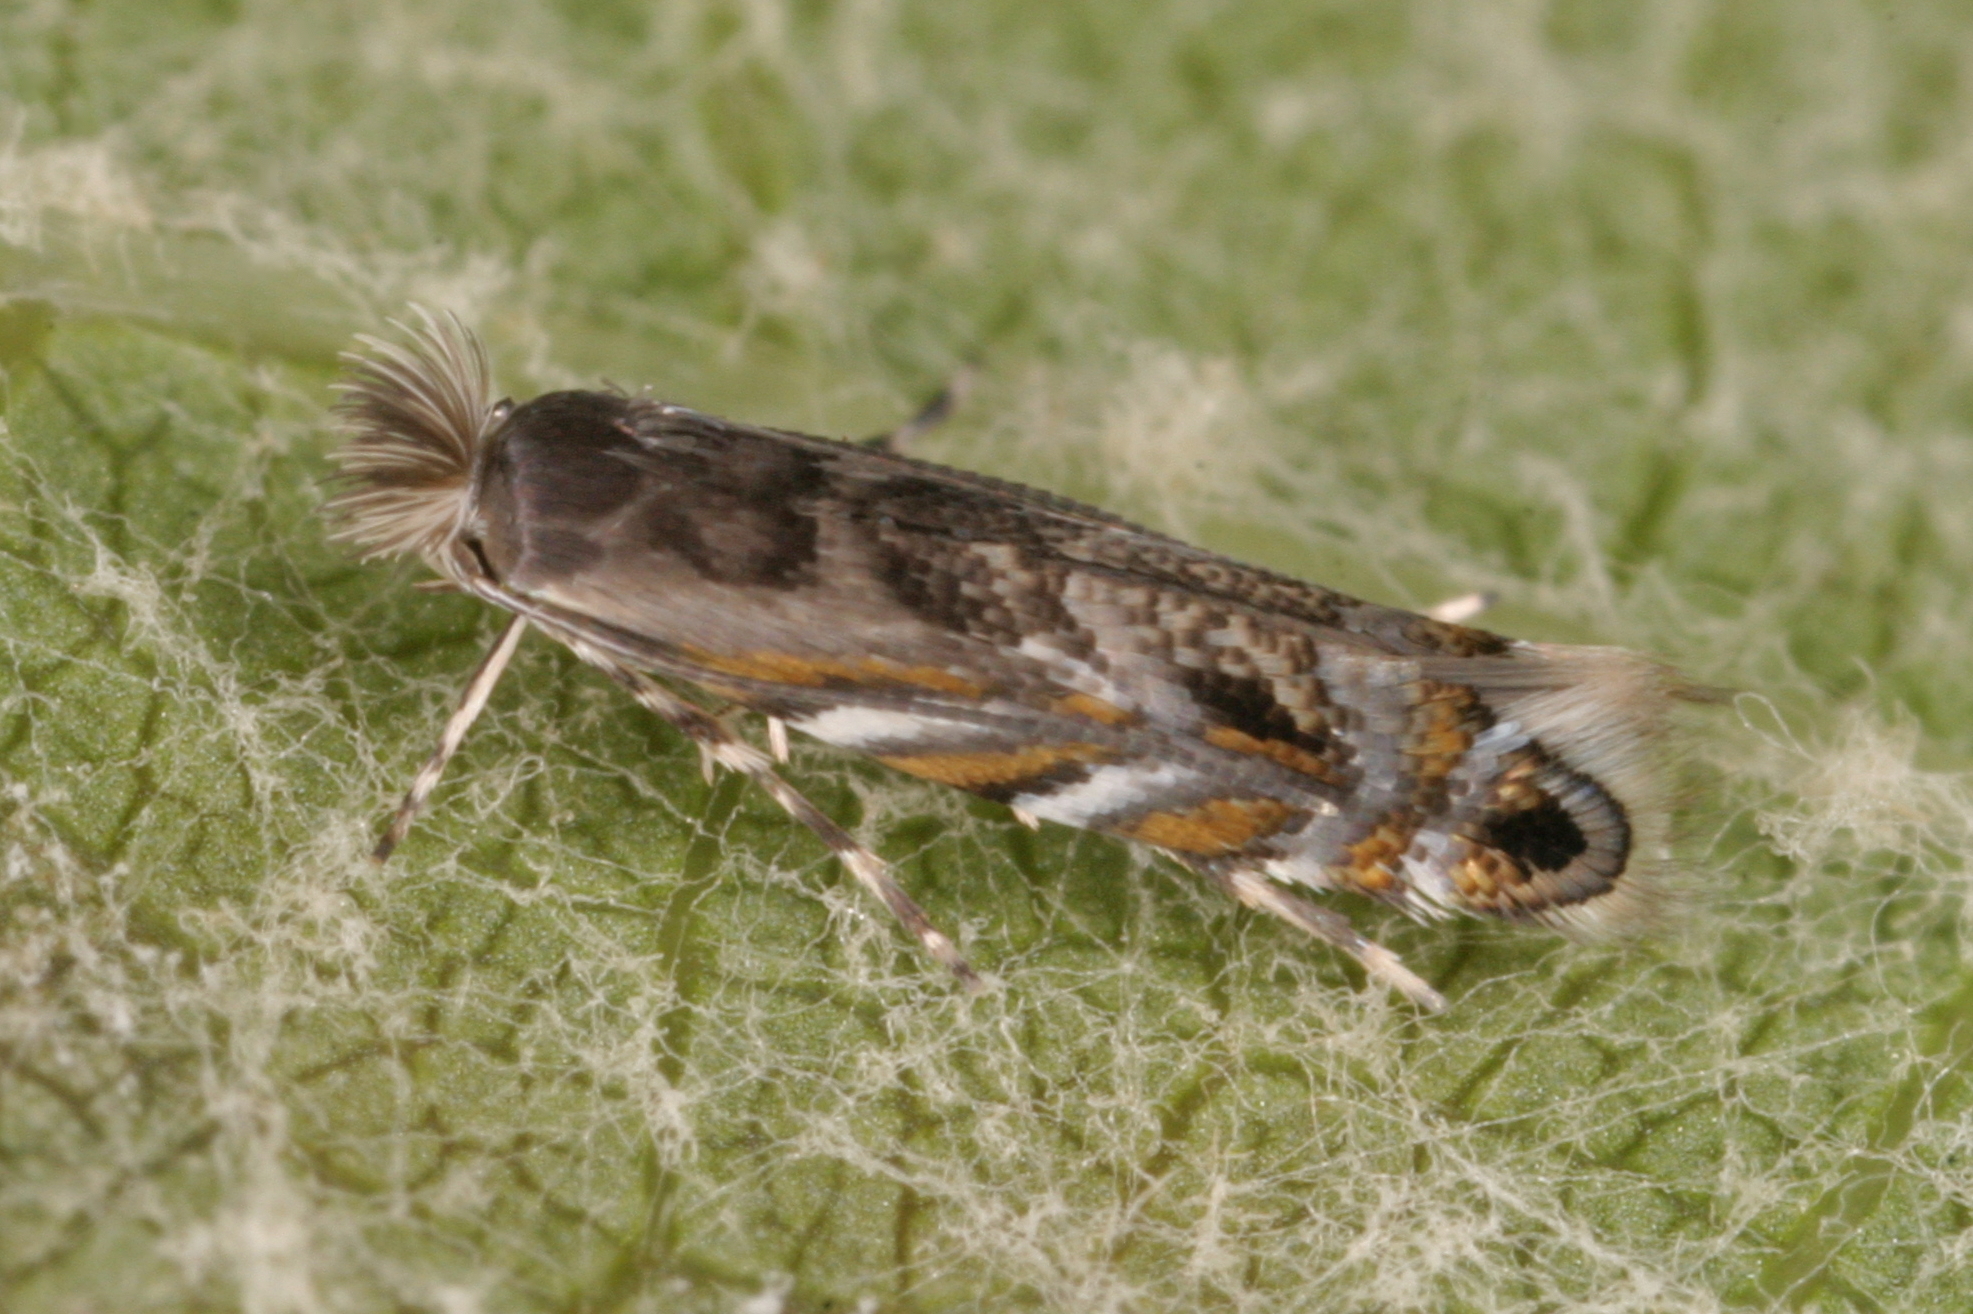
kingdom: Animalia
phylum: Arthropoda
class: Insecta
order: Lepidoptera
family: Gracillariidae
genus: Macrosaccus
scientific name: Macrosaccus robiniella
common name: Leaf blotch miner moth
